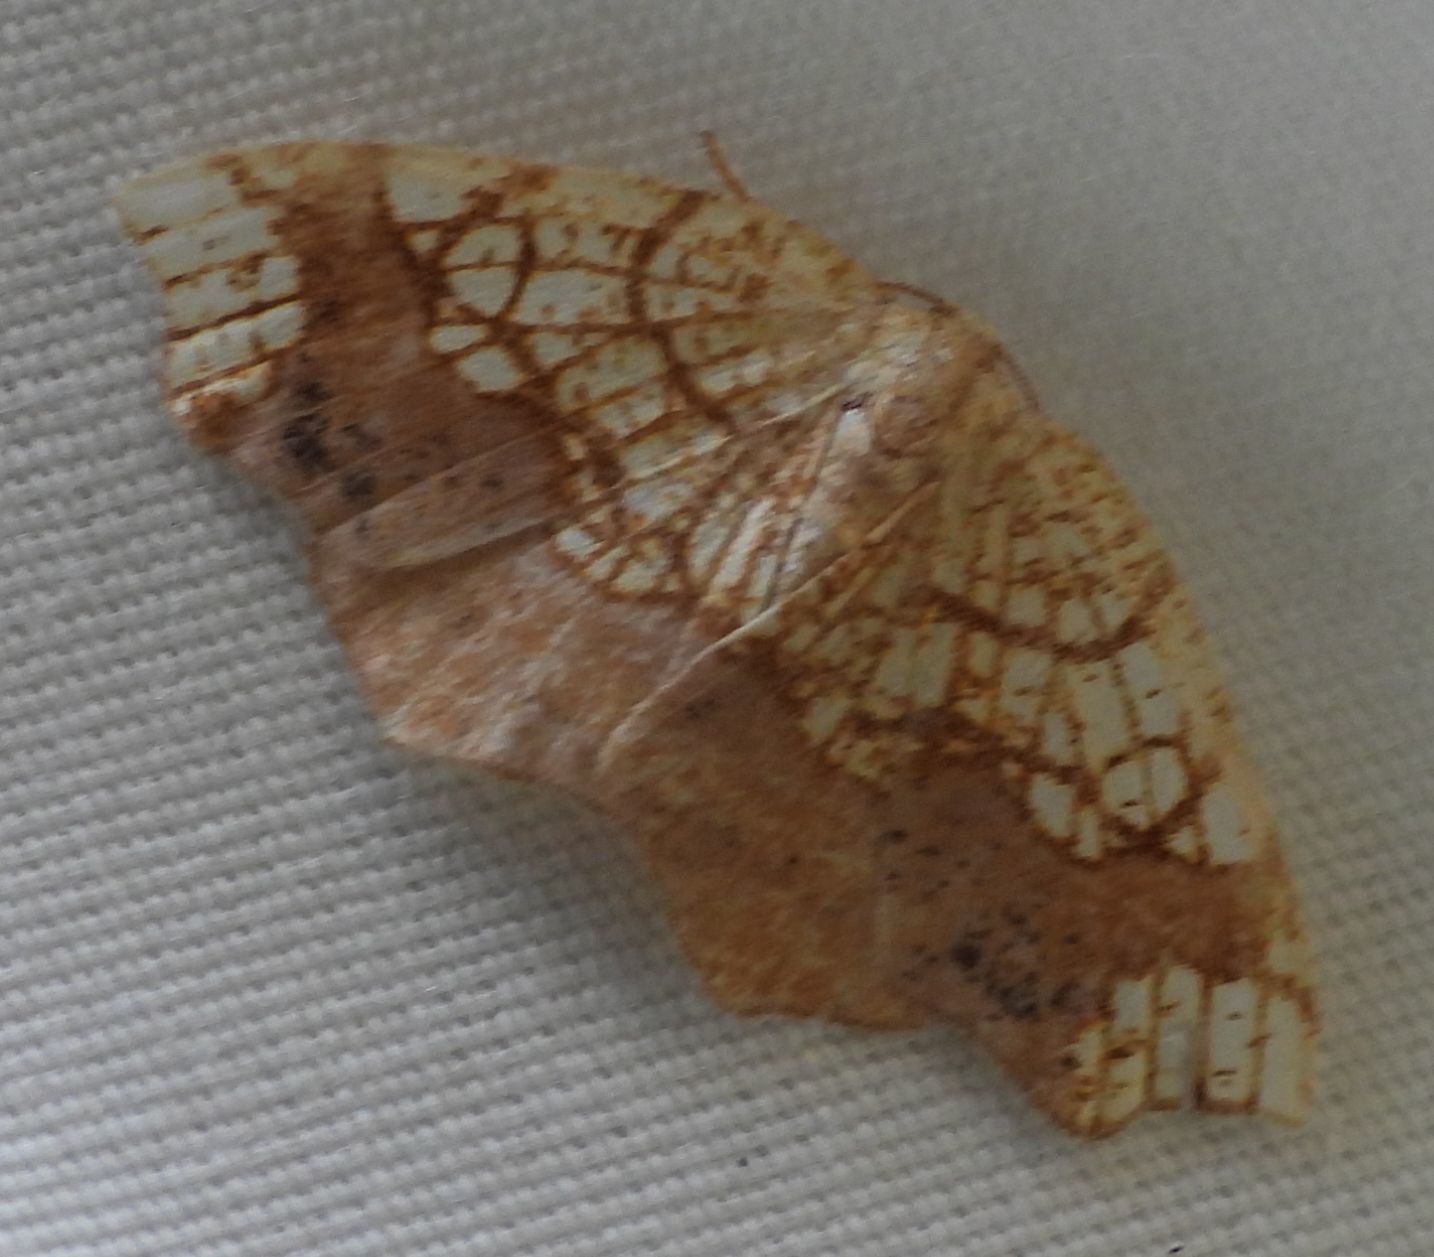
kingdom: Animalia
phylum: Arthropoda
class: Insecta
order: Lepidoptera
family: Geometridae
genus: Nematocampa
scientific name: Nematocampa resistaria
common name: Horned spanworm moth
